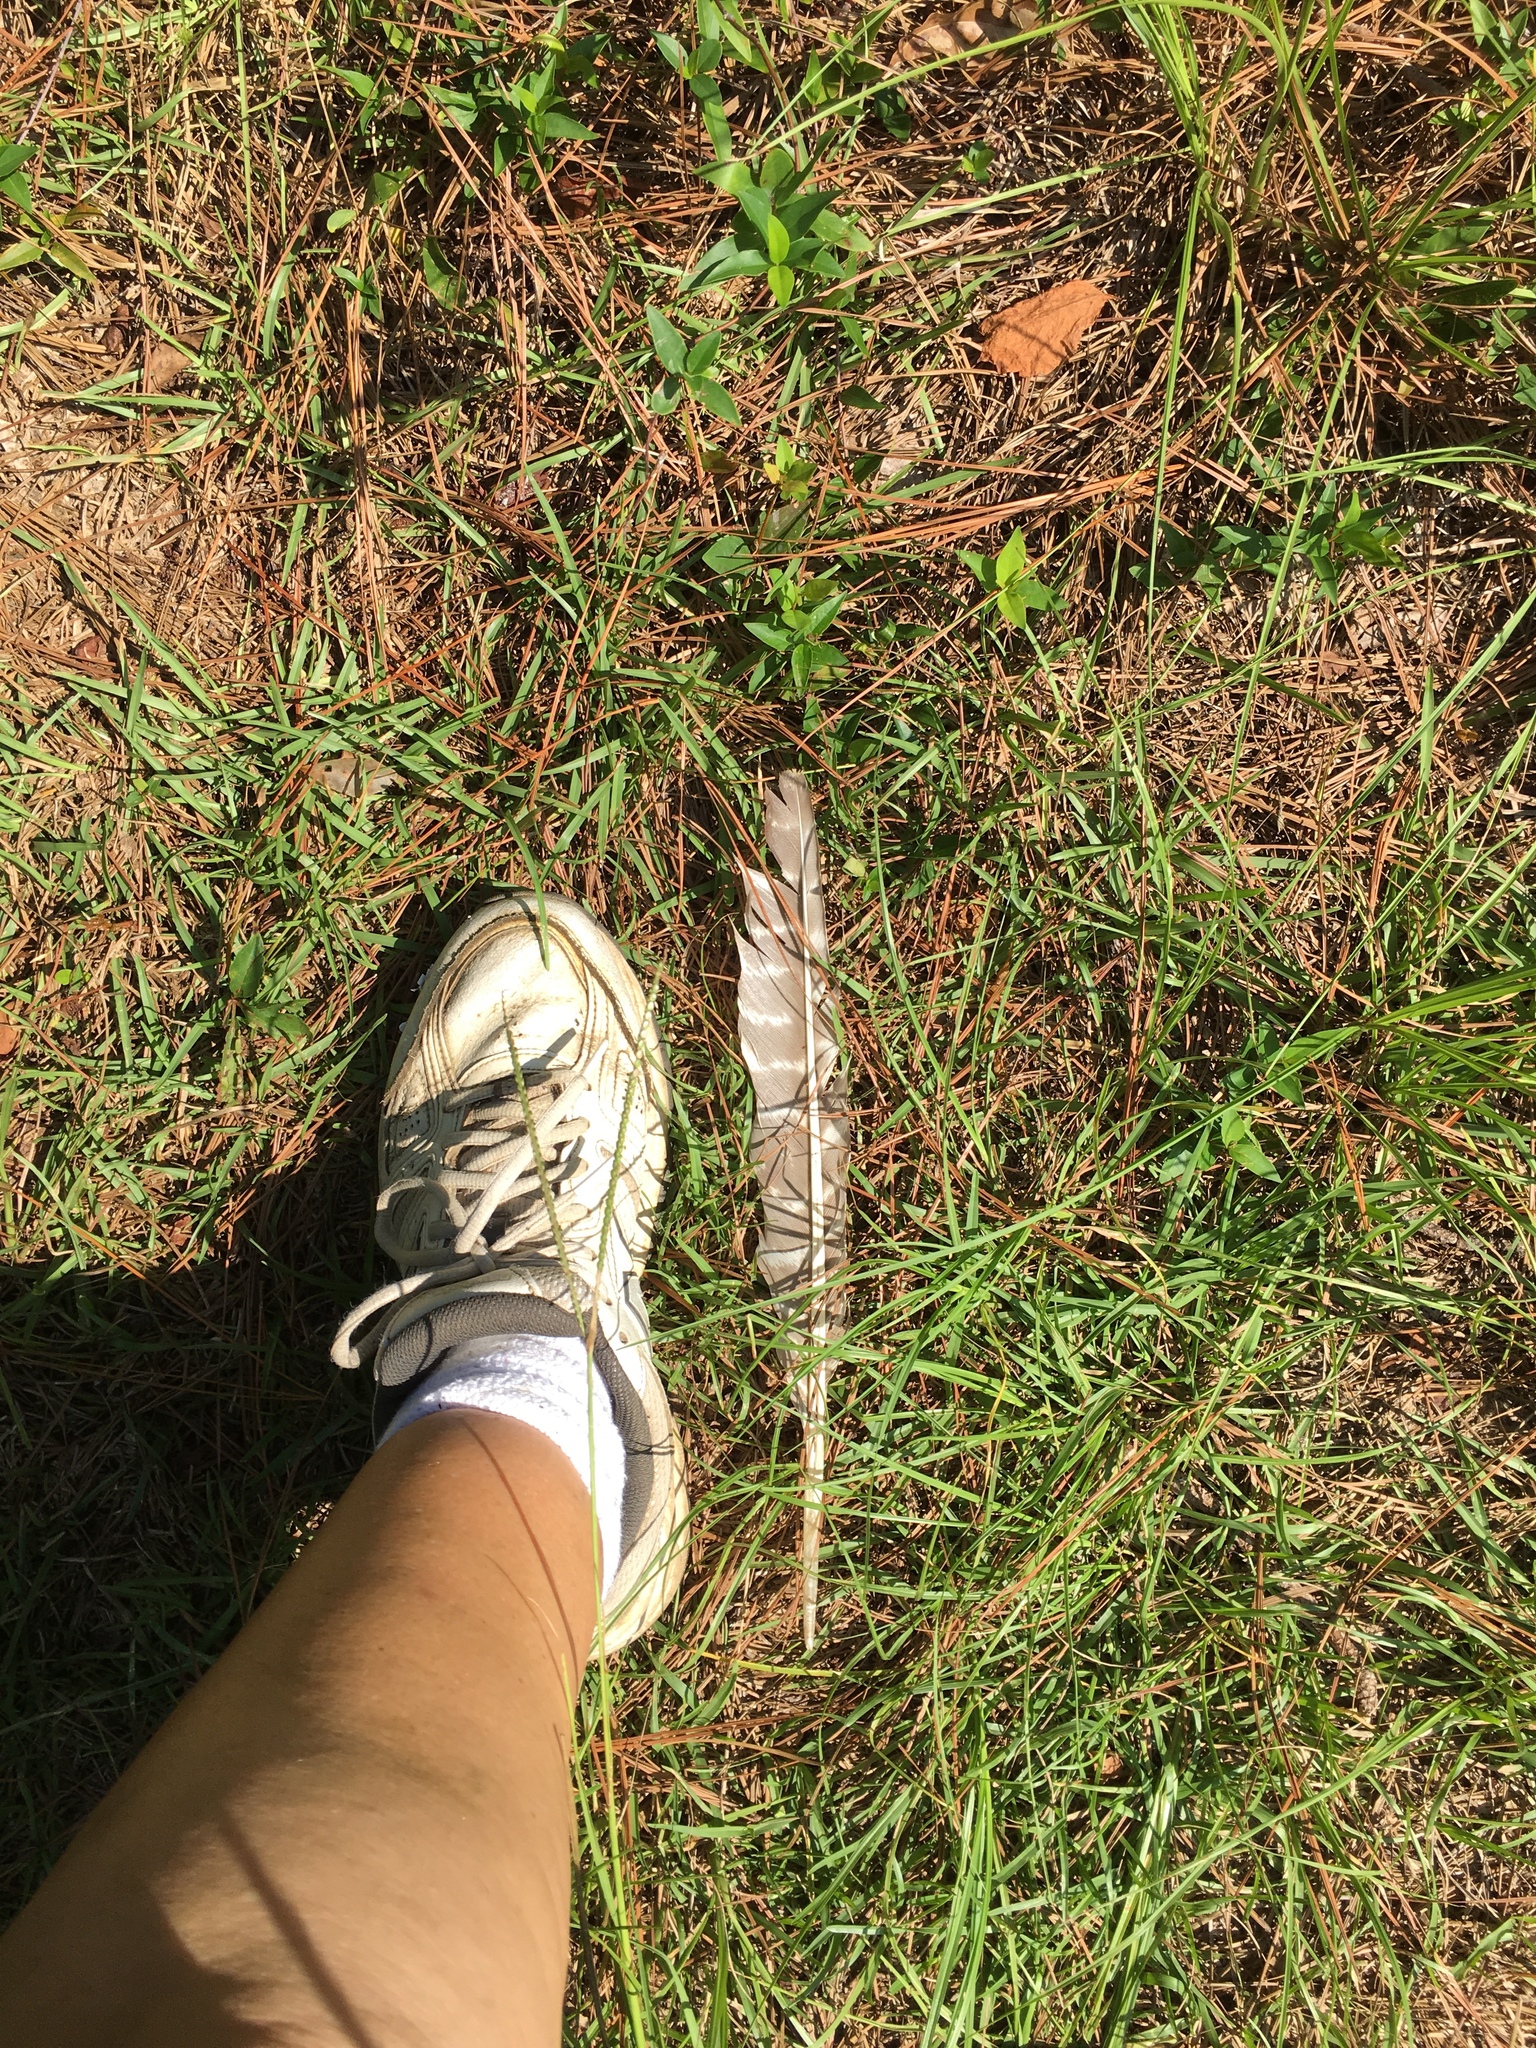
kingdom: Animalia
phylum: Chordata
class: Aves
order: Galliformes
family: Phasianidae
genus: Meleagris
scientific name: Meleagris gallopavo
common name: Wild turkey
